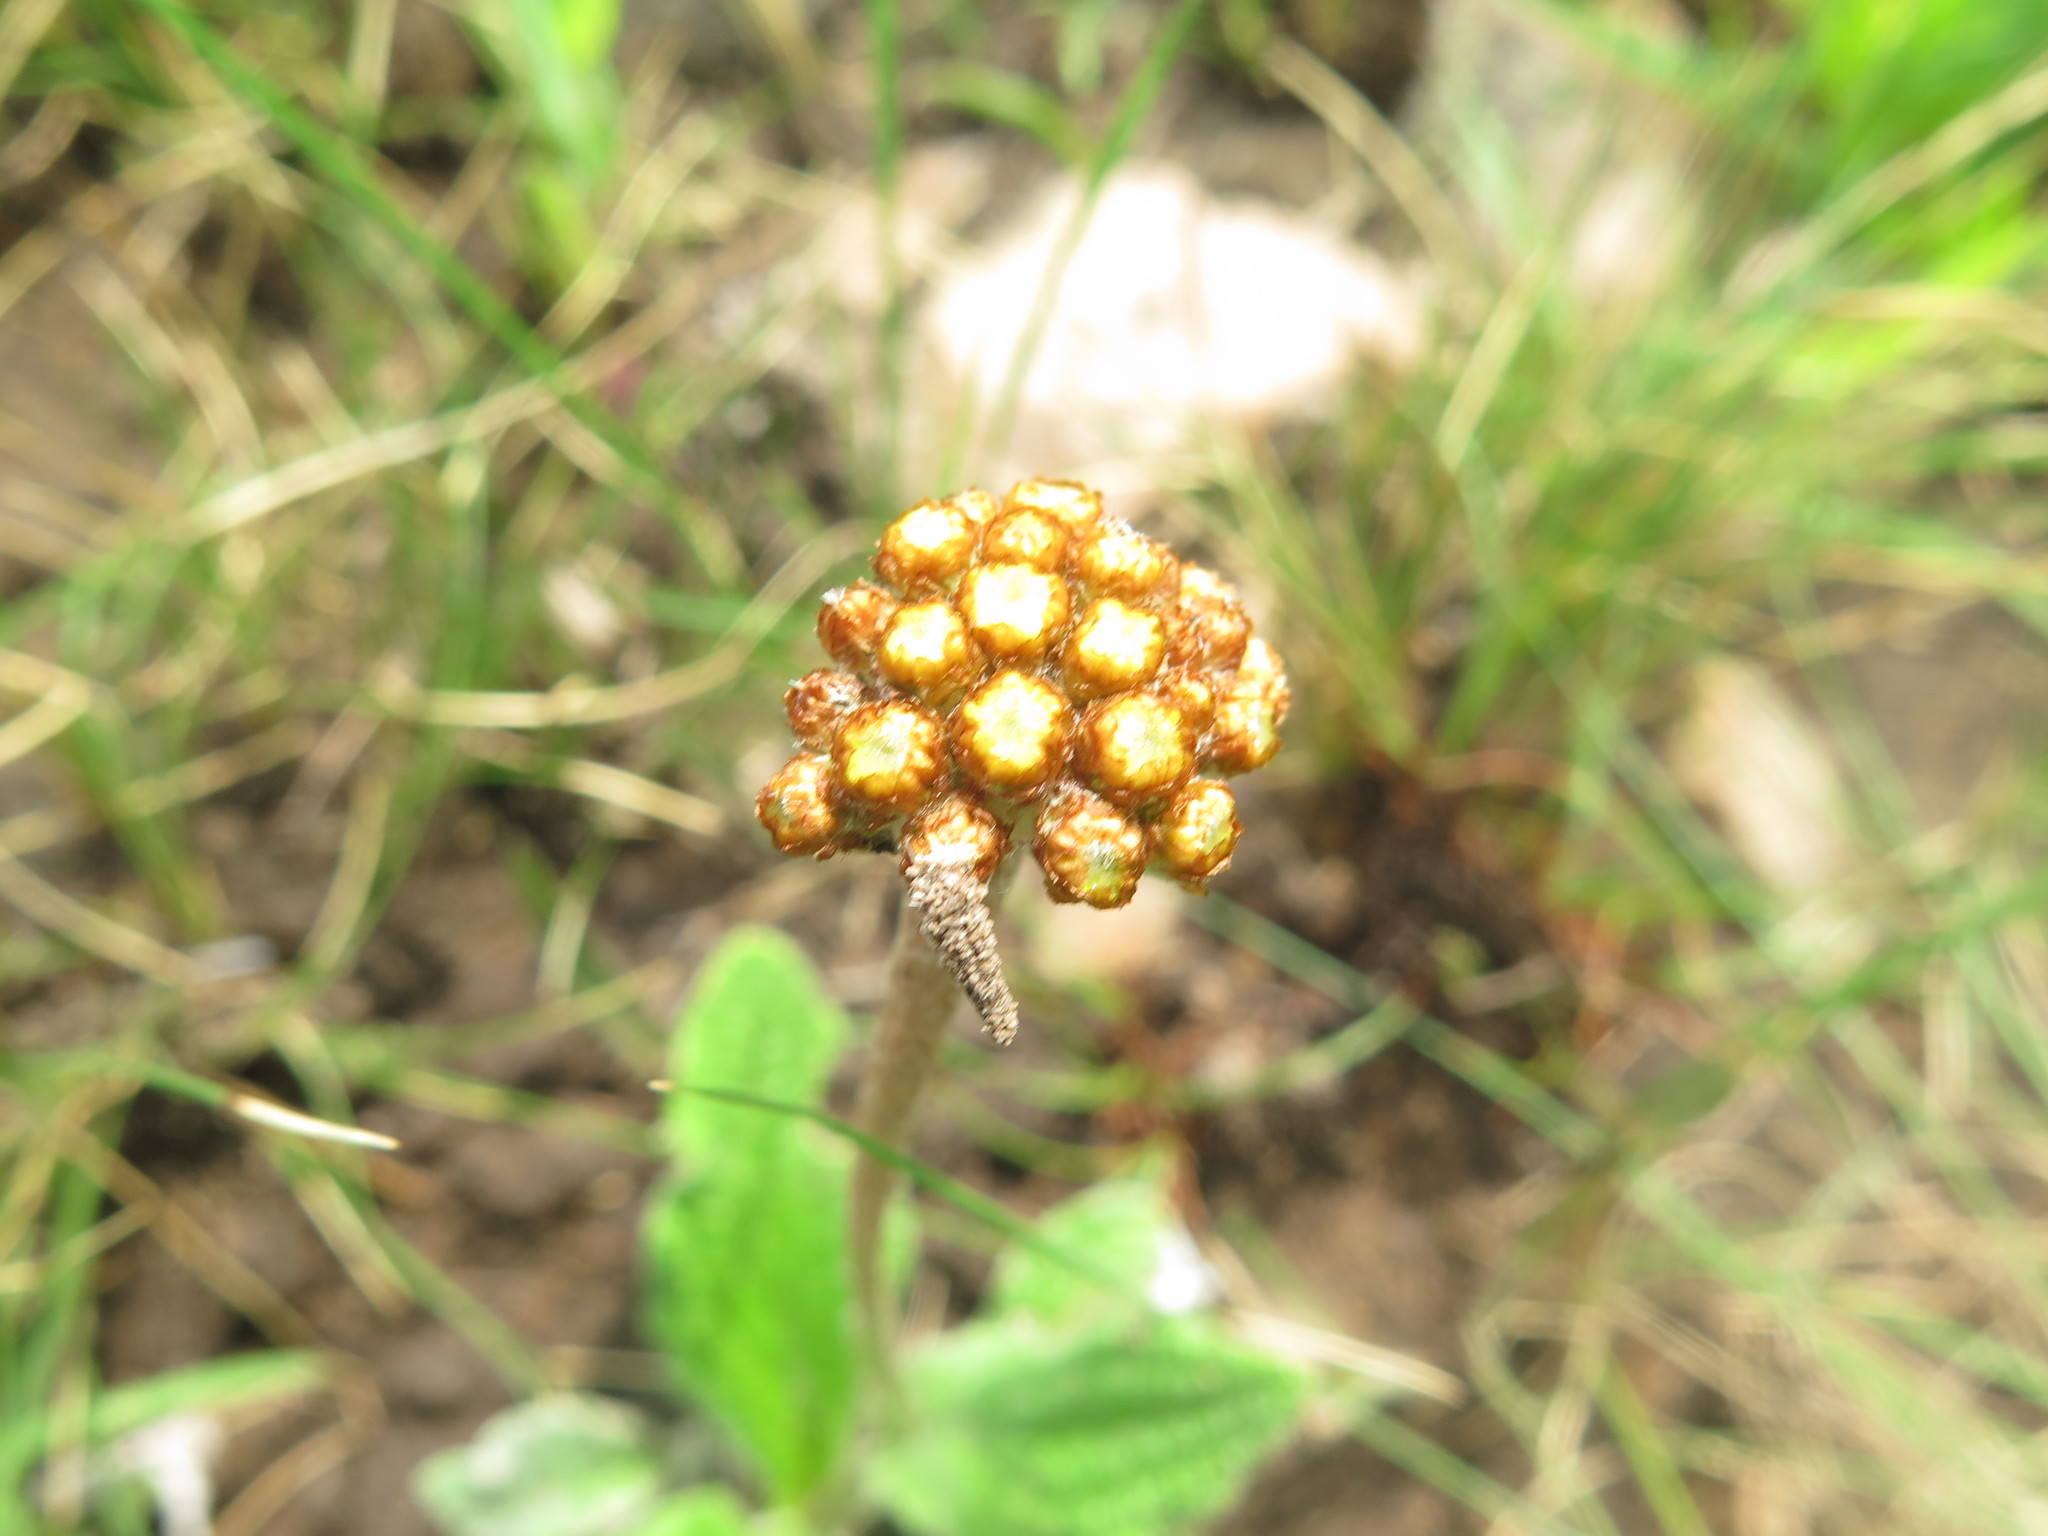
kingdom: Plantae
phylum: Tracheophyta
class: Magnoliopsida
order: Asterales
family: Asteraceae
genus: Helichrysum
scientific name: Helichrysum nudifolium
